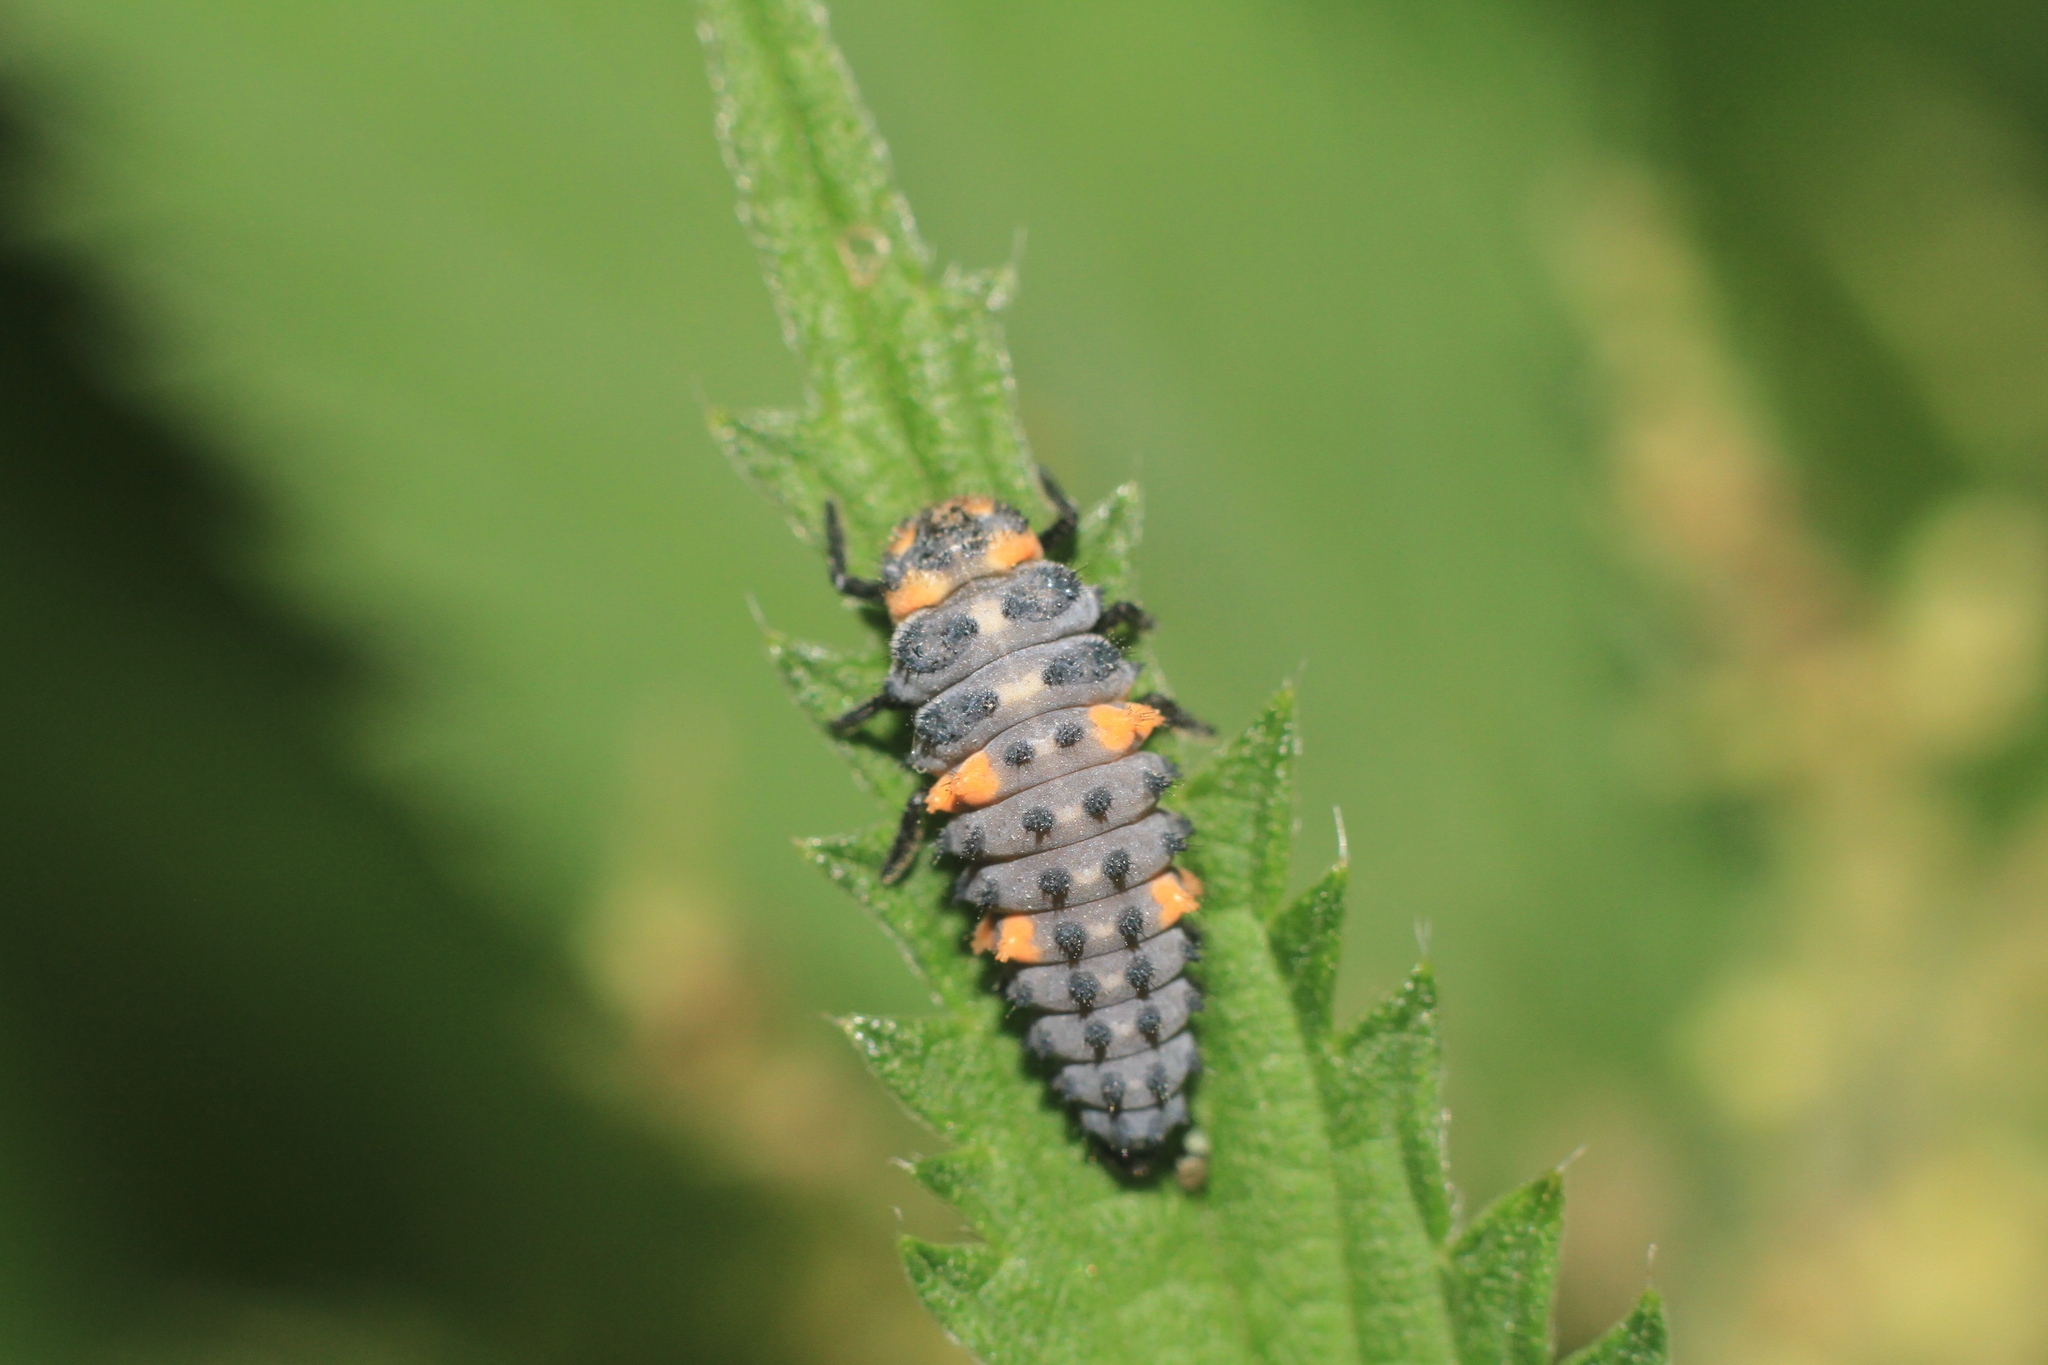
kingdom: Animalia
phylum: Arthropoda
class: Insecta
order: Coleoptera
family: Coccinellidae
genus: Coccinella
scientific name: Coccinella septempunctata
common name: Sevenspotted lady beetle
